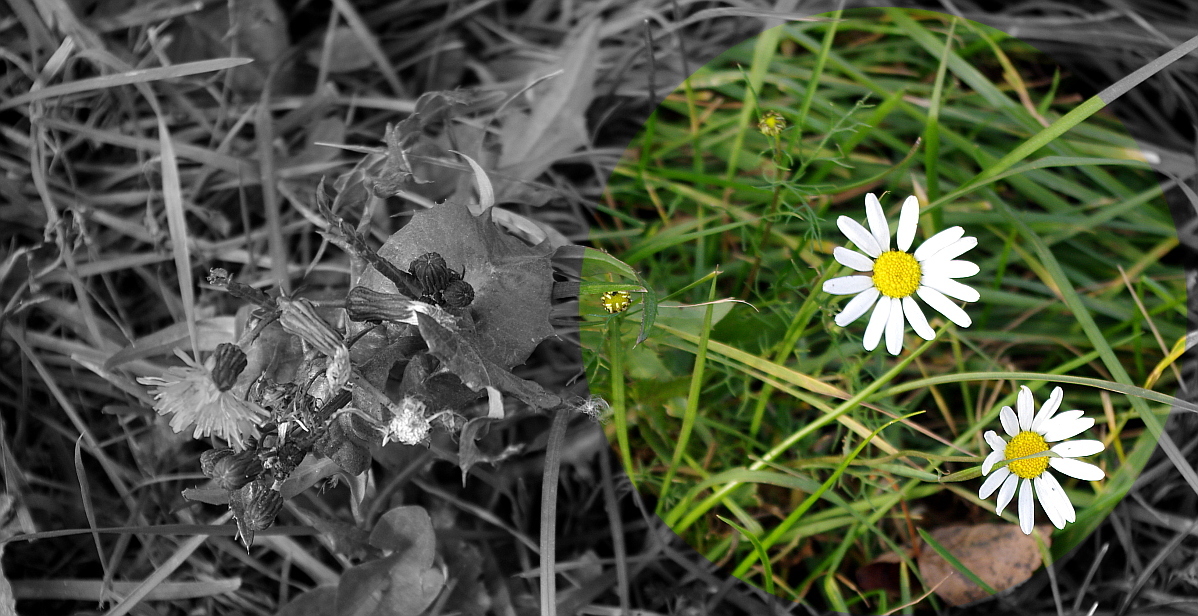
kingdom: Plantae
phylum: Tracheophyta
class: Magnoliopsida
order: Asterales
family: Asteraceae
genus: Tripleurospermum
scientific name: Tripleurospermum inodorum
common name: Scentless mayweed
